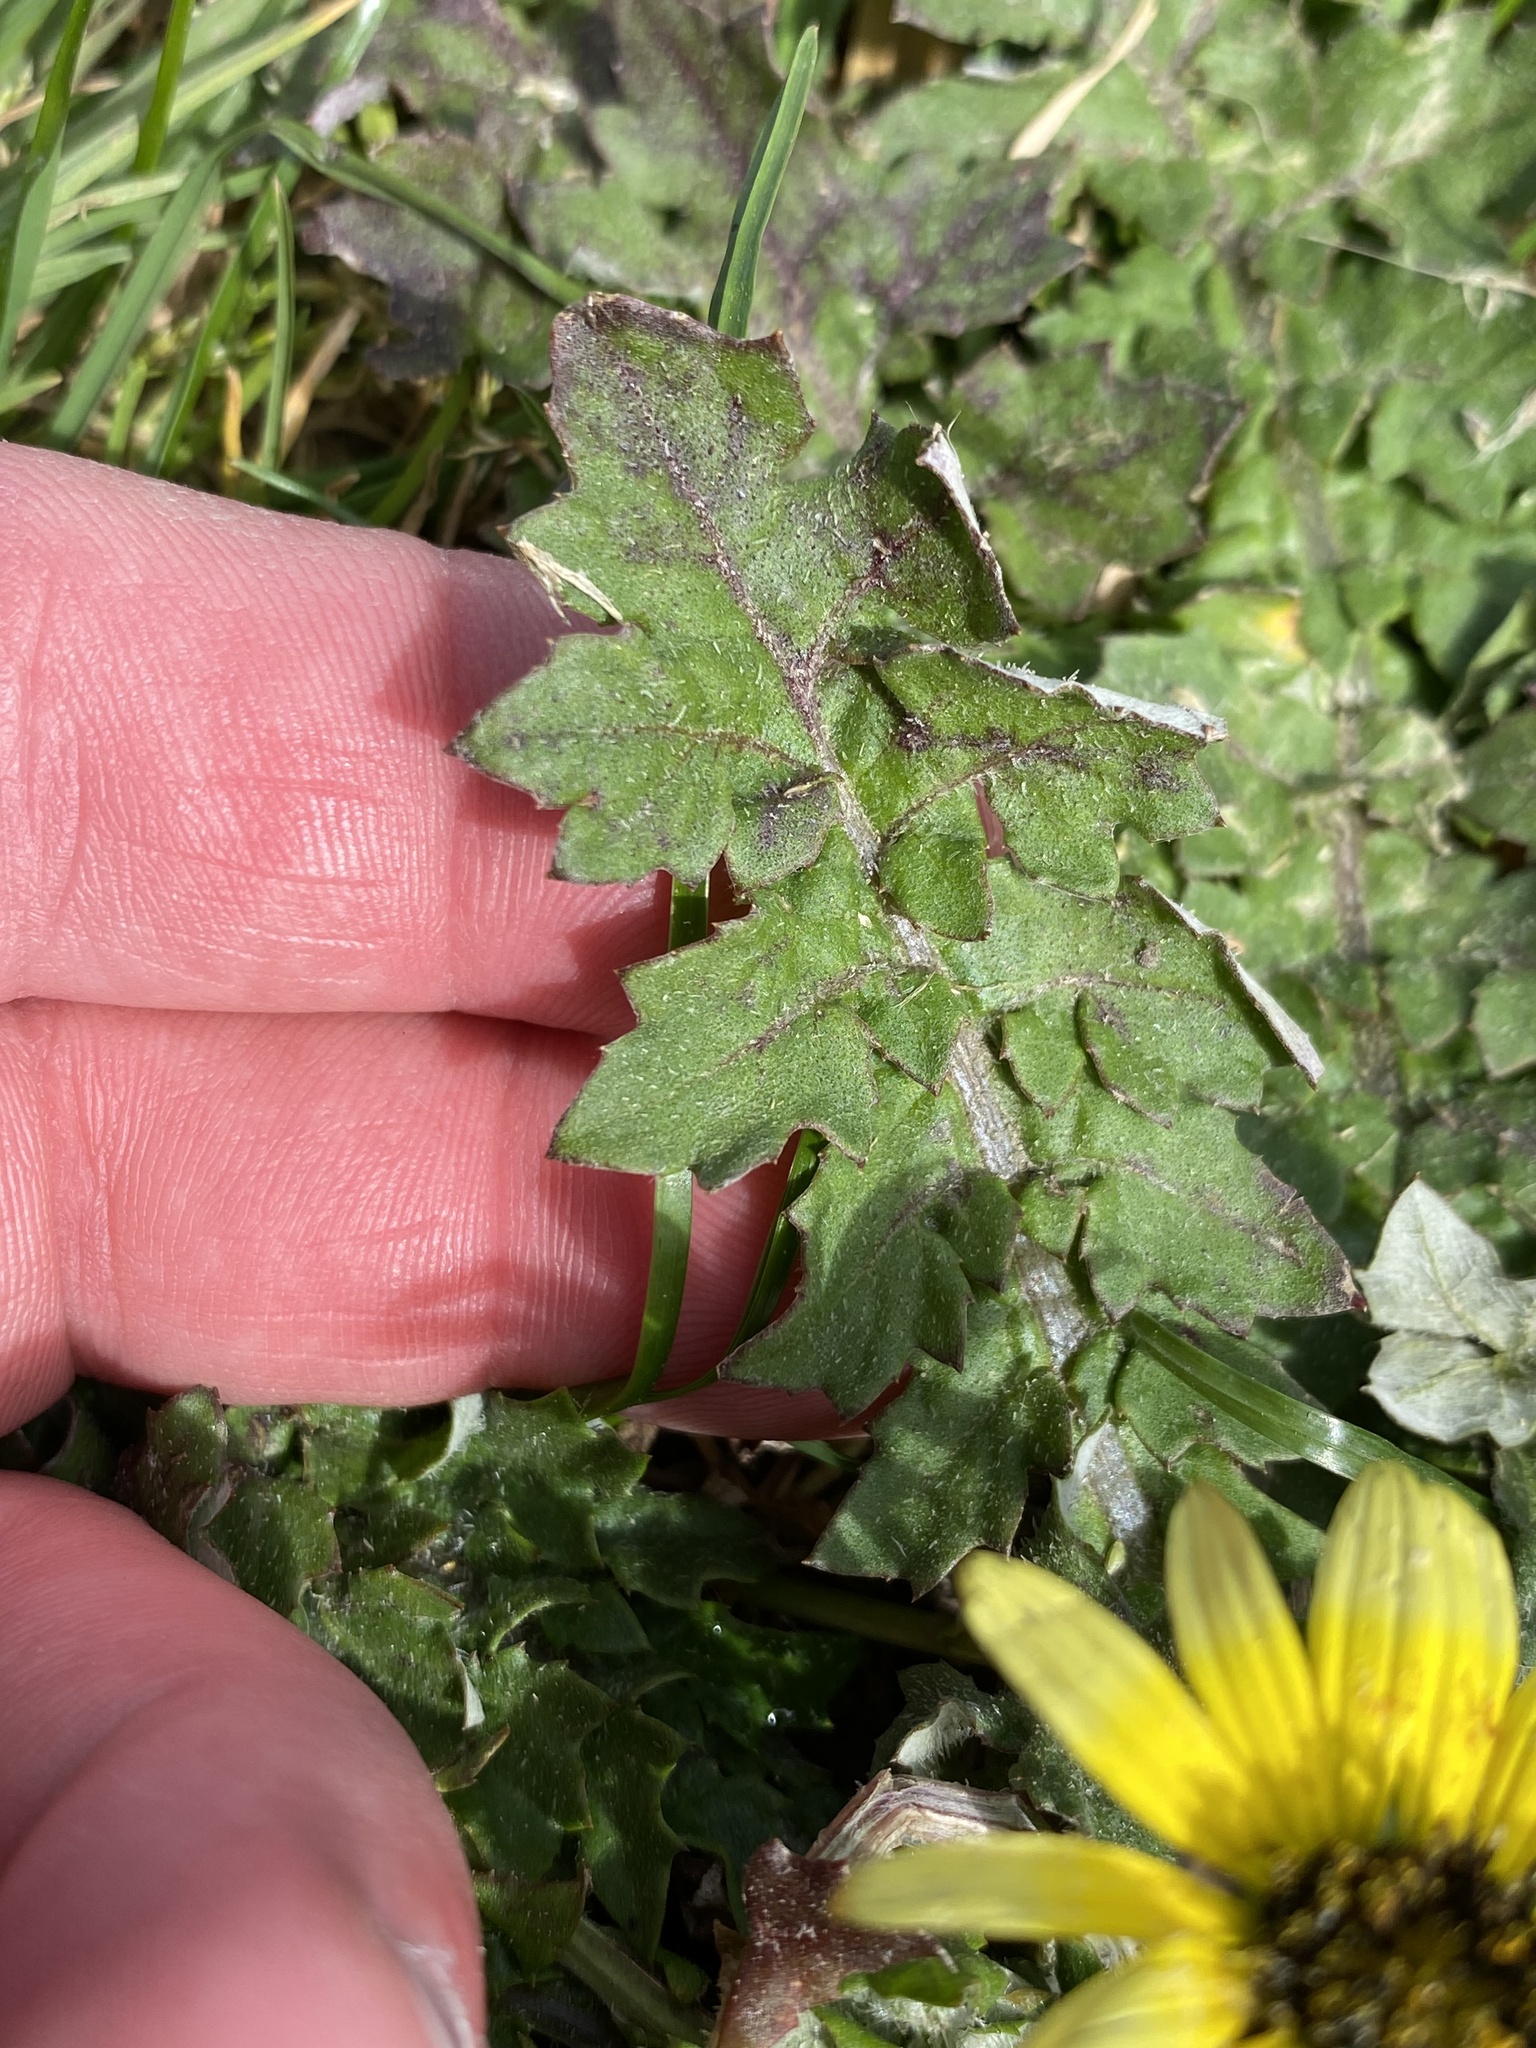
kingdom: Plantae
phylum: Tracheophyta
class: Magnoliopsida
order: Asterales
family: Asteraceae
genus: Arctotheca
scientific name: Arctotheca calendula
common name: Capeweed
